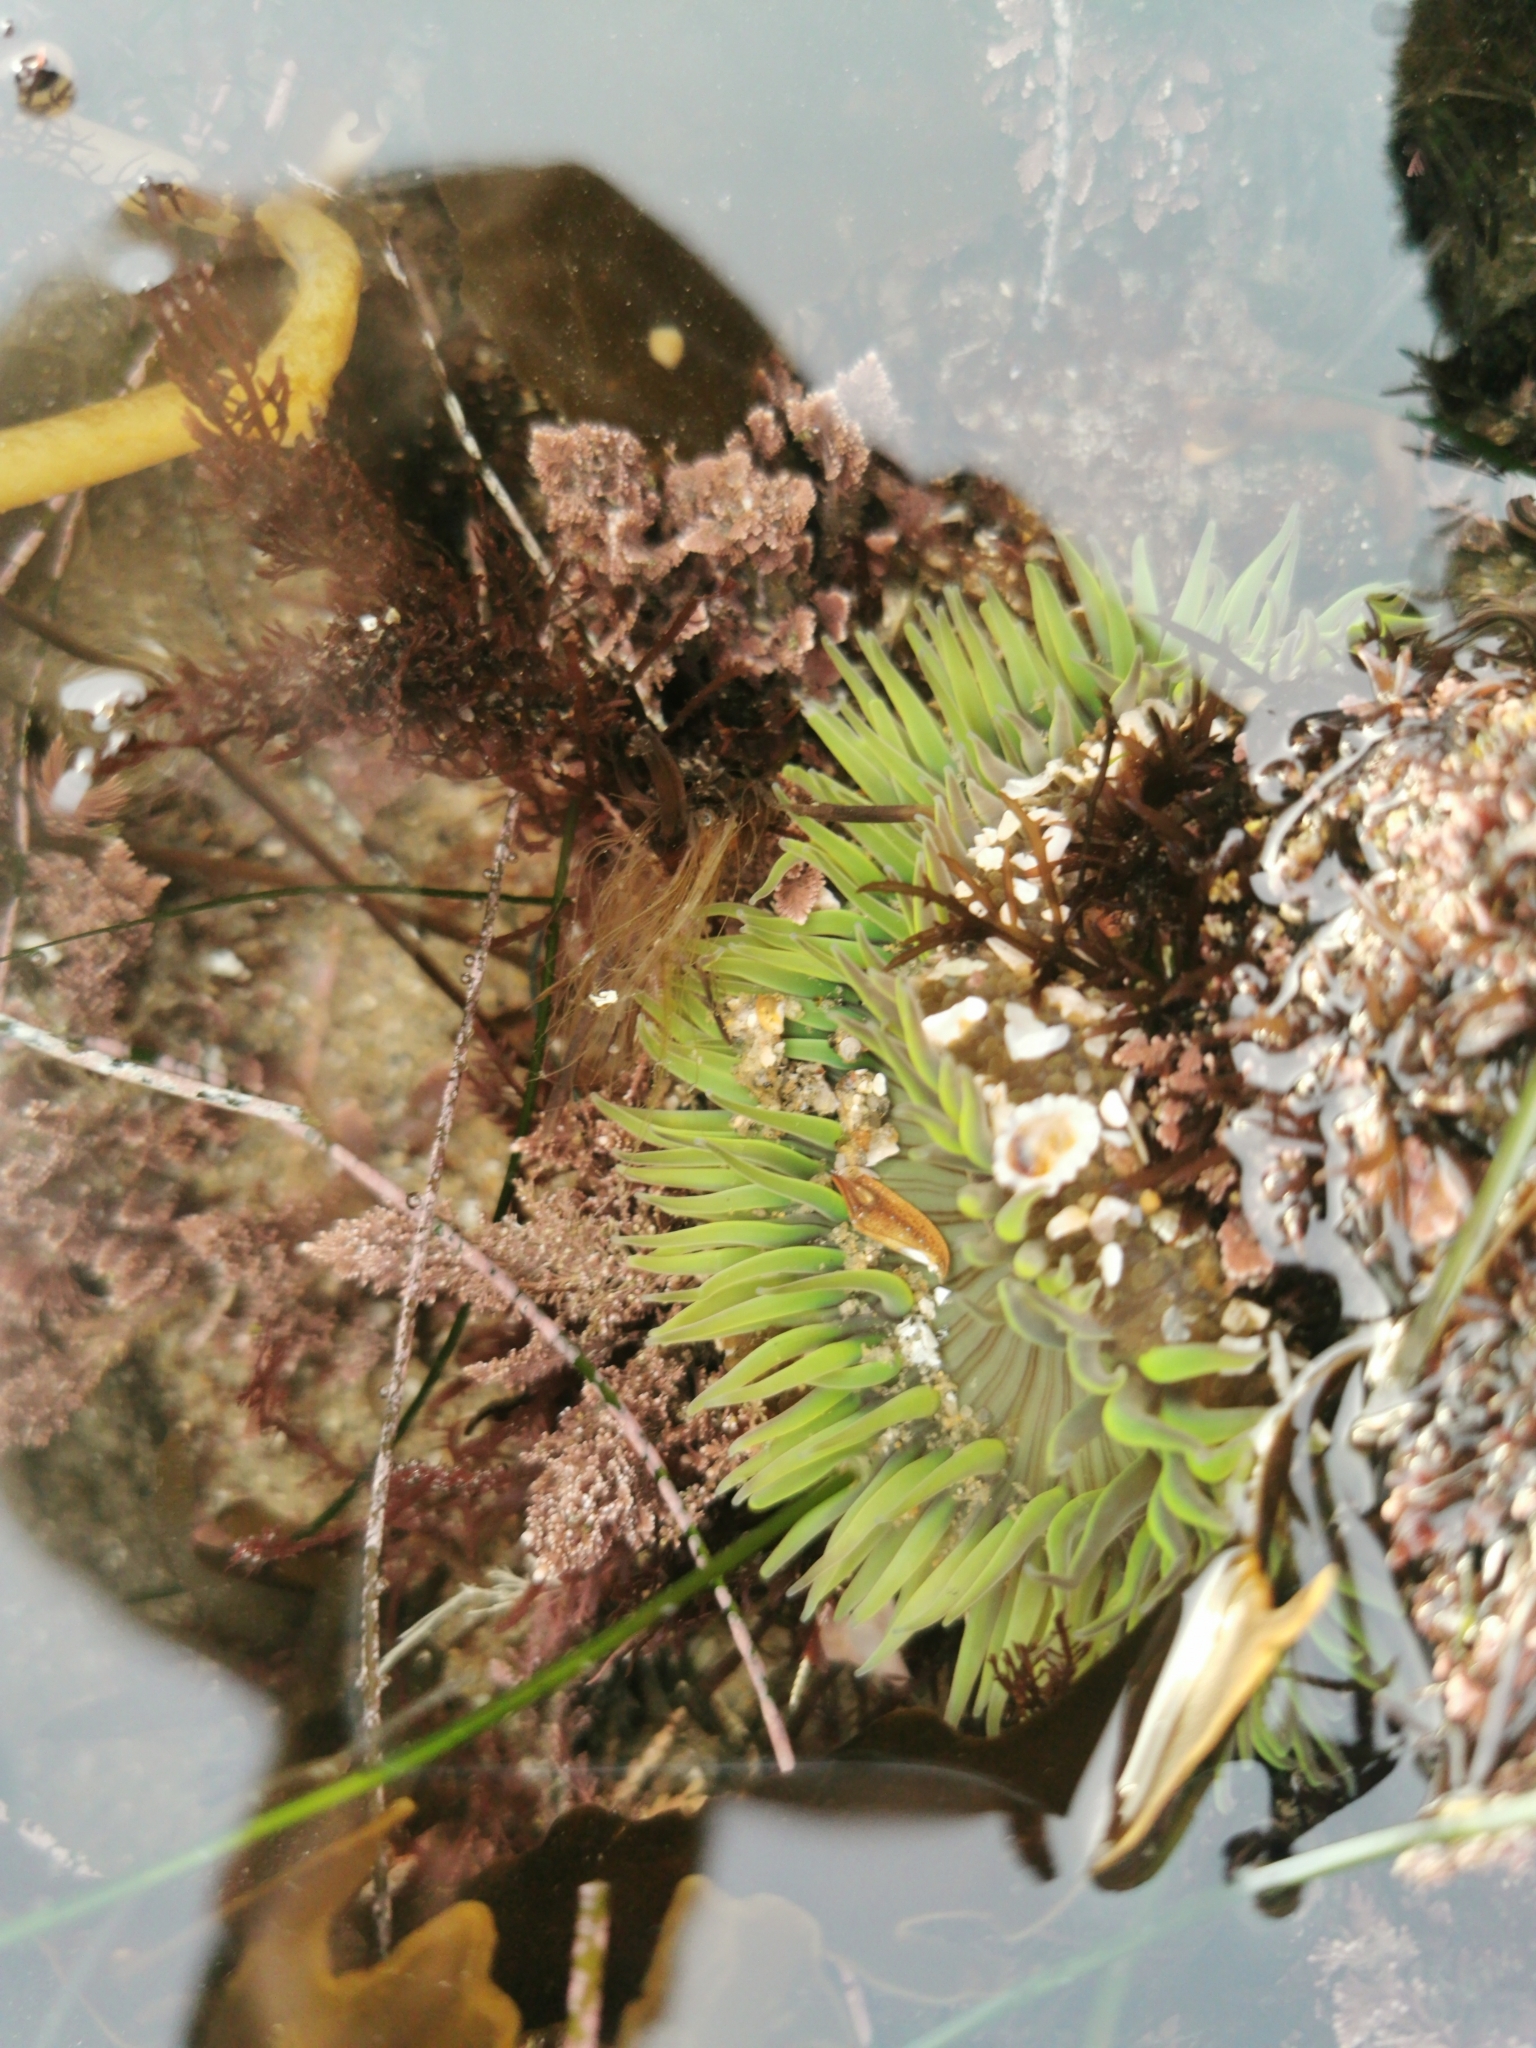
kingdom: Animalia
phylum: Cnidaria
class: Anthozoa
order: Actiniaria
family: Actiniidae
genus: Anthopleura
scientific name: Anthopleura sola
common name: Sun anemone
